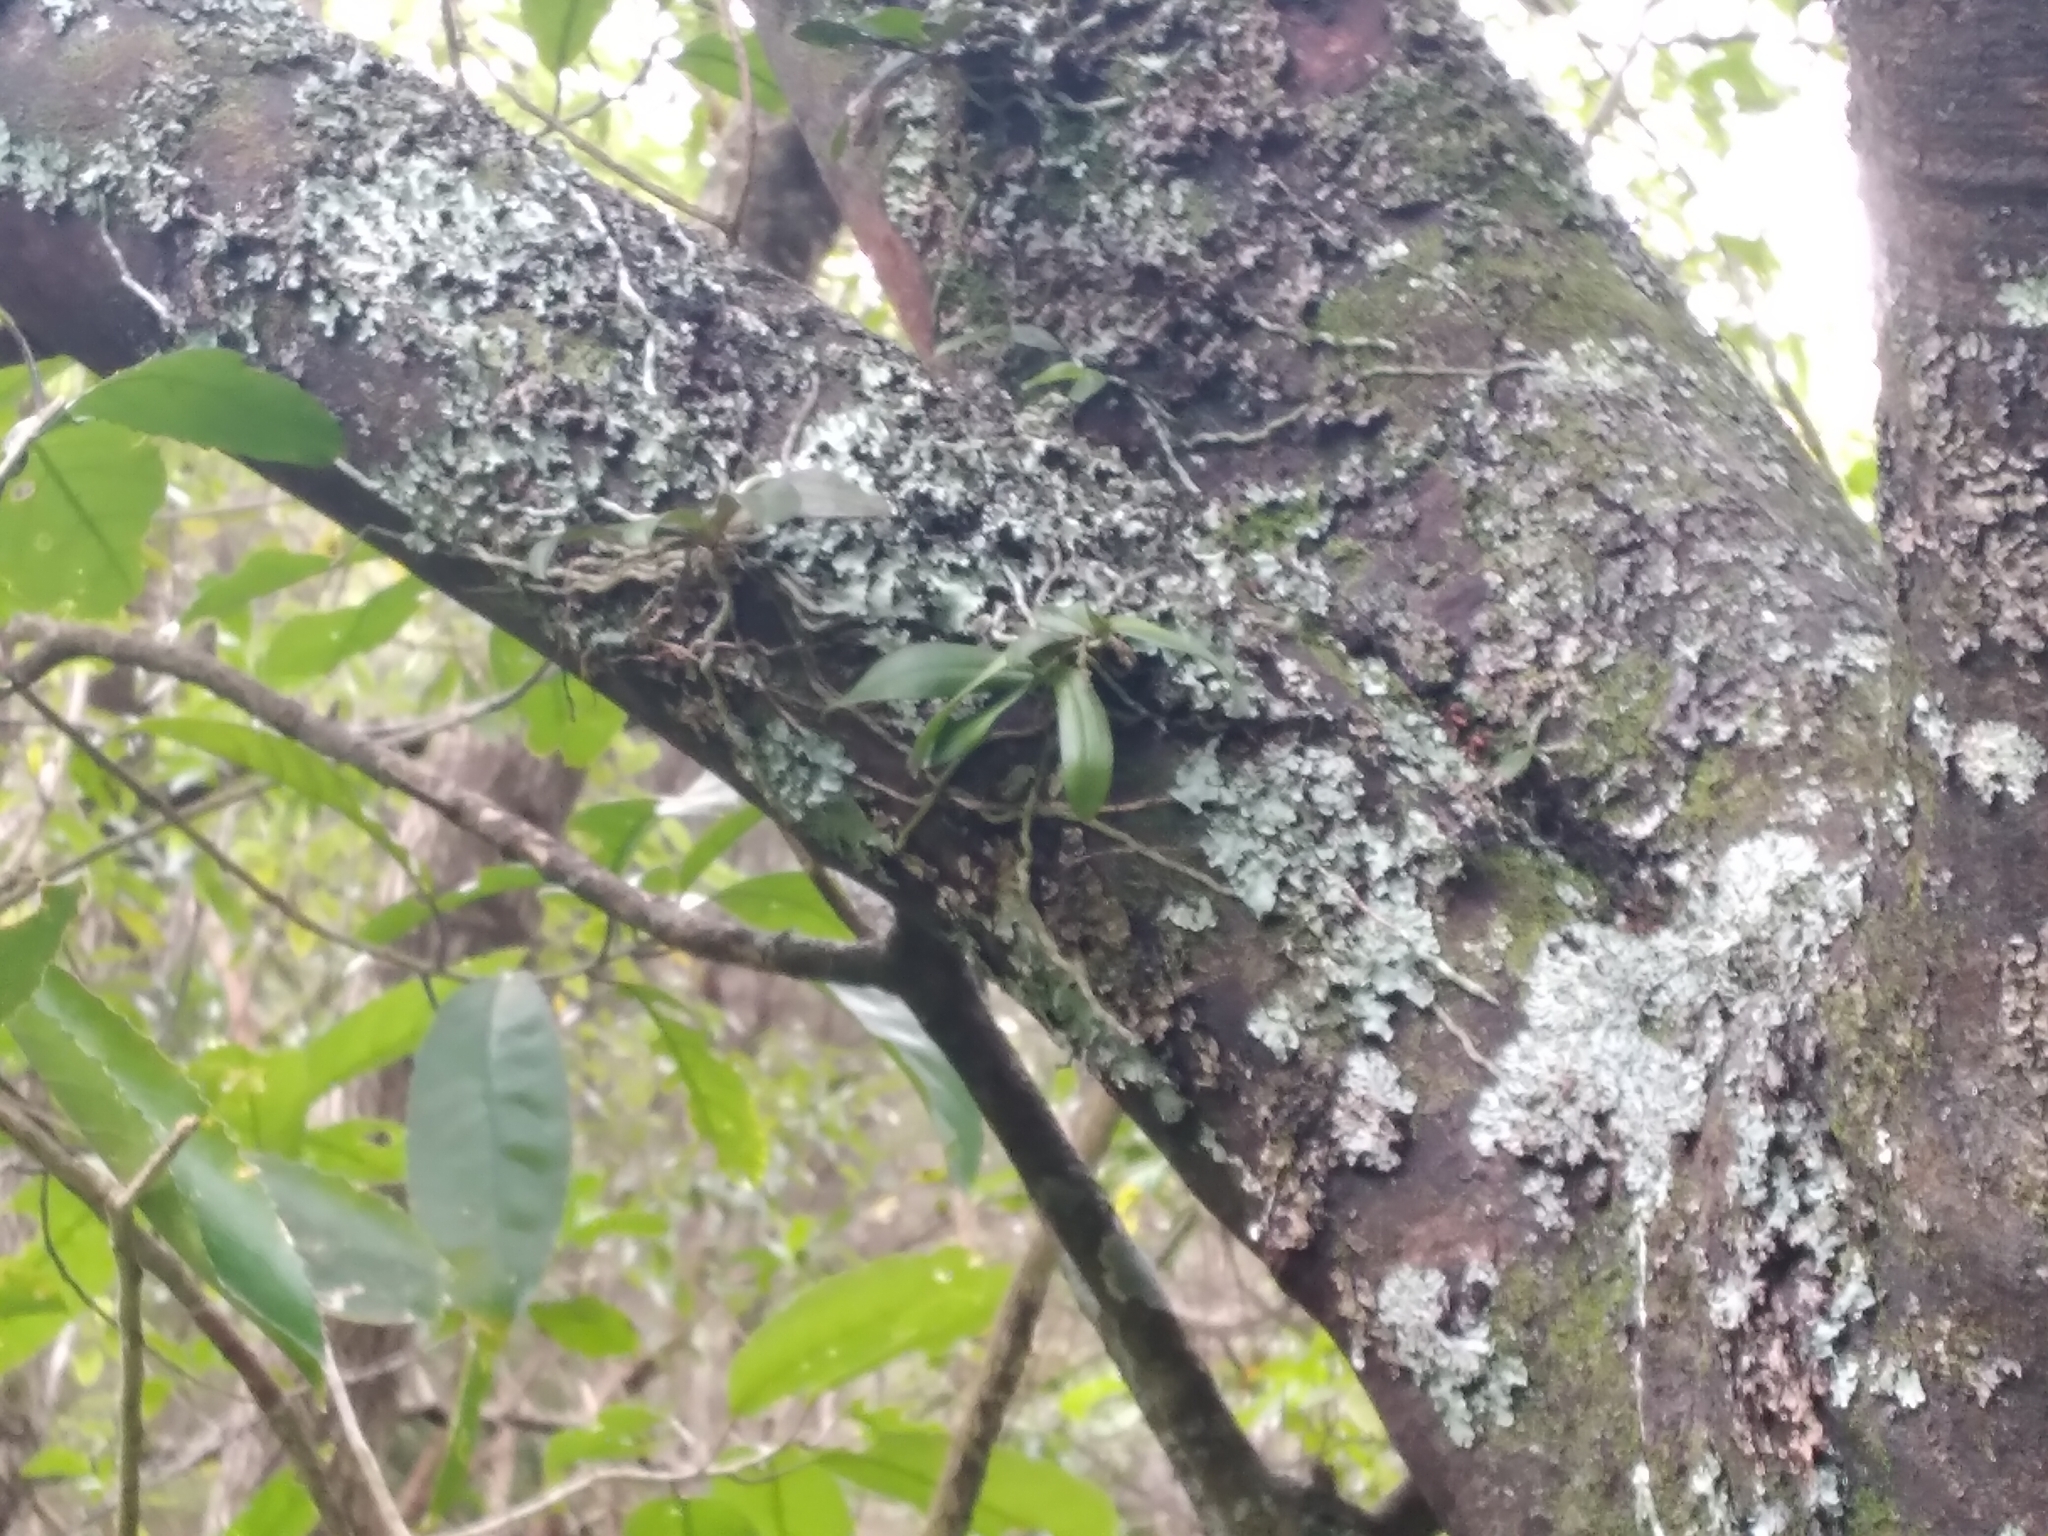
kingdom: Plantae
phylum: Tracheophyta
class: Liliopsida
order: Asparagales
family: Orchidaceae
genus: Drymoanthus
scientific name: Drymoanthus adversus
